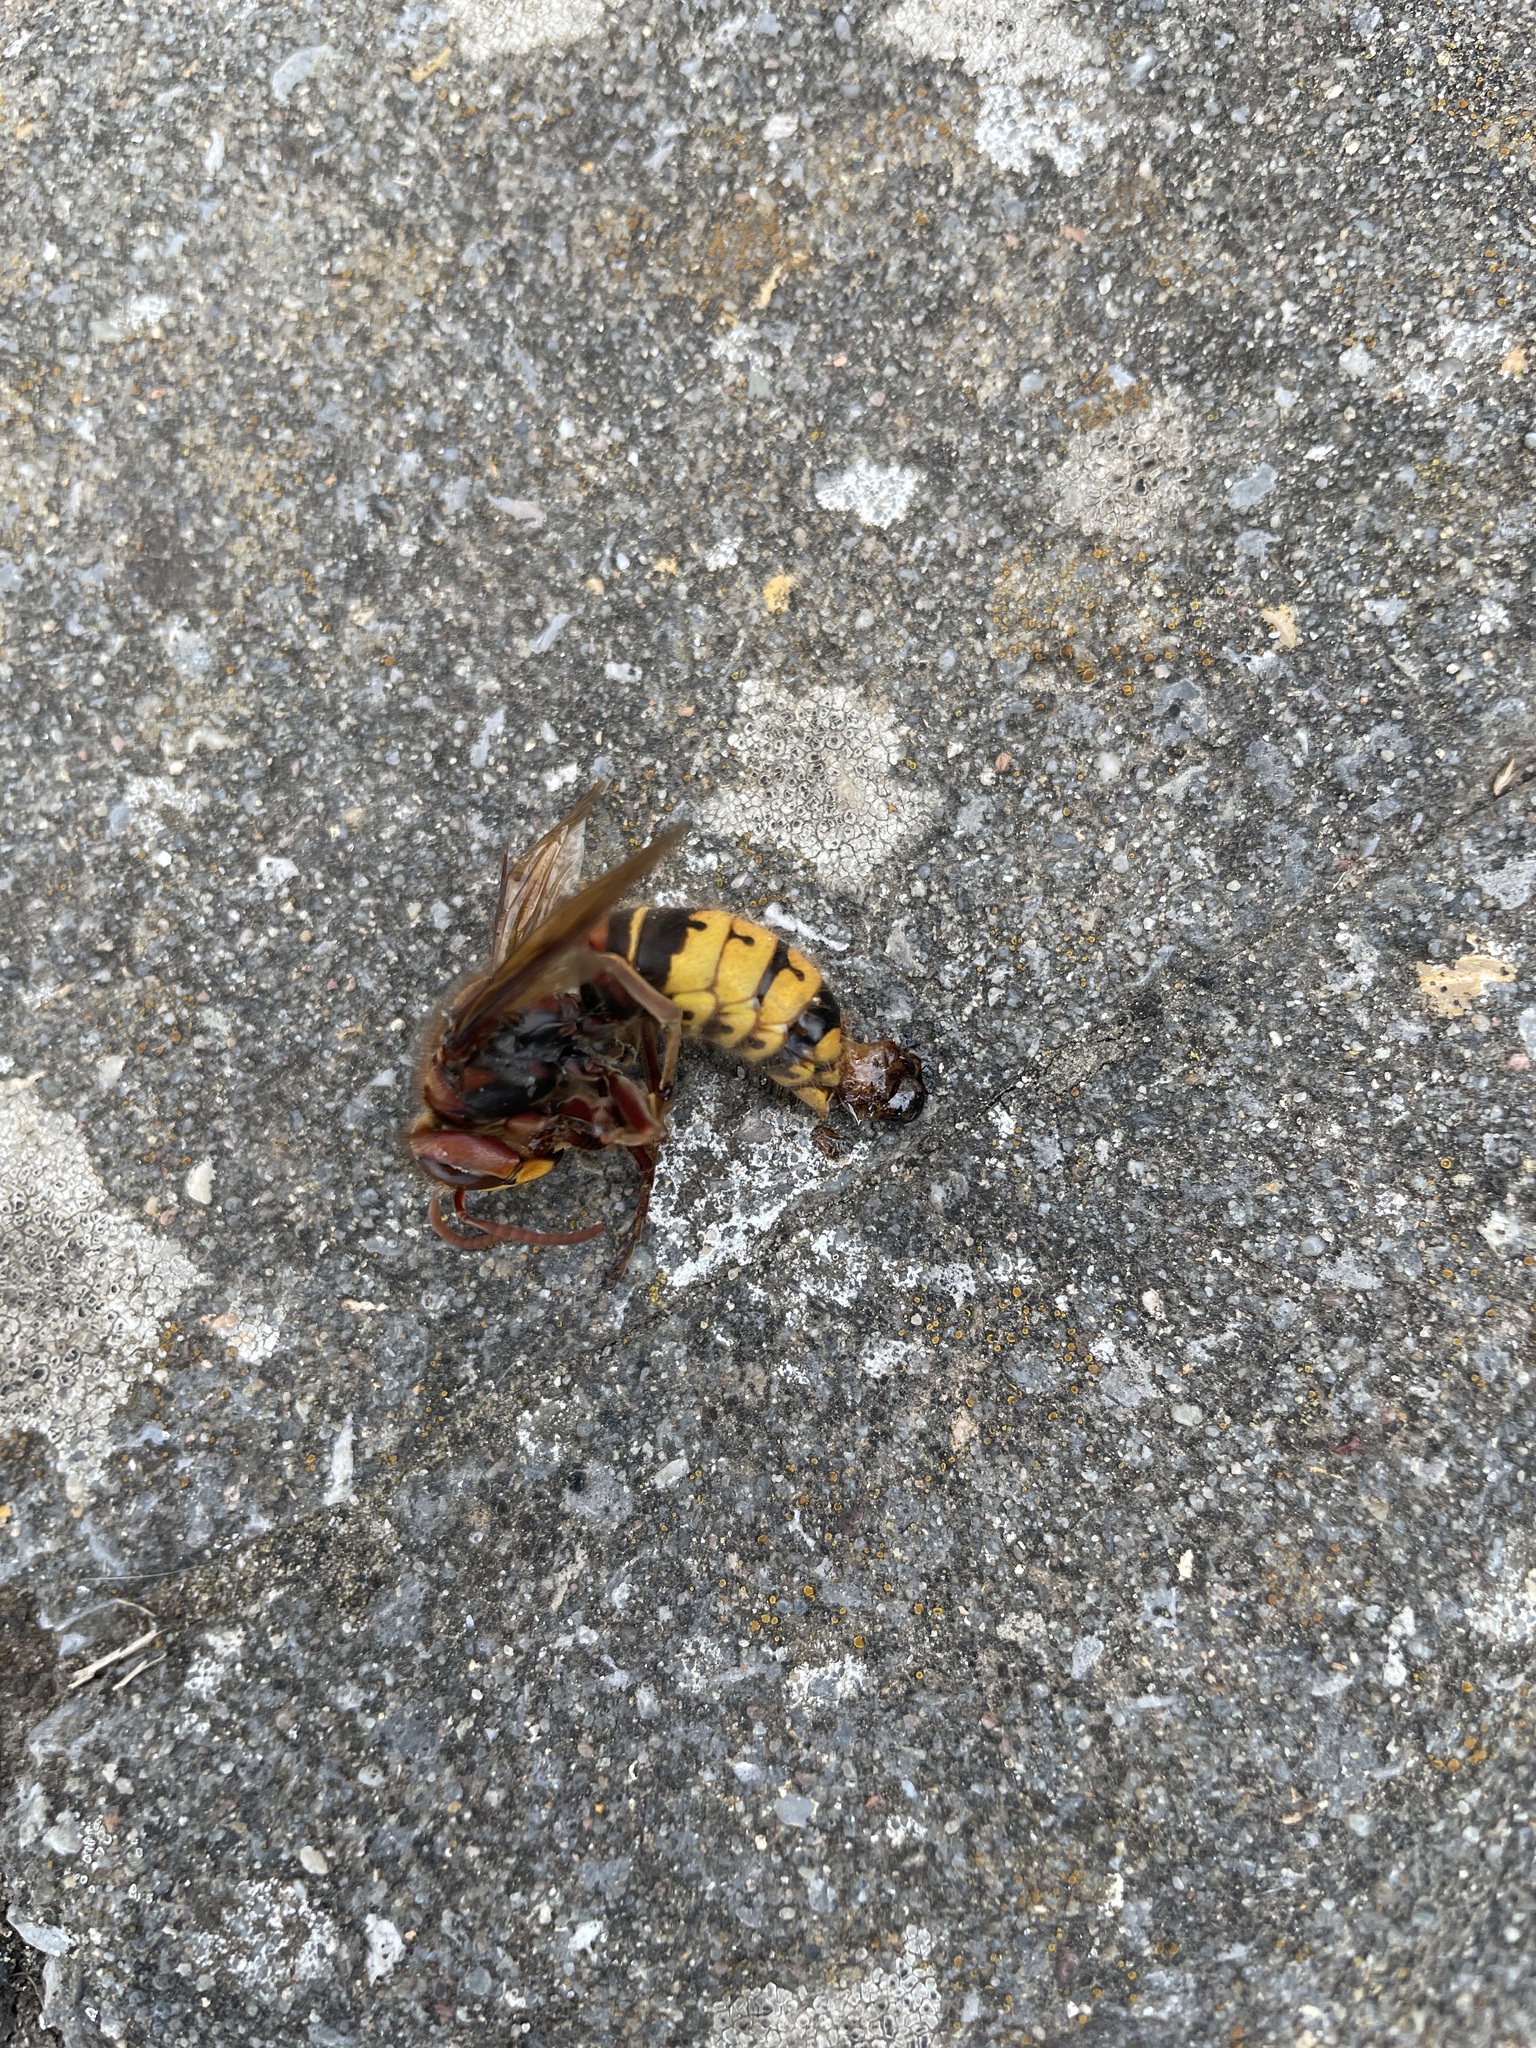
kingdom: Animalia
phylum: Arthropoda
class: Insecta
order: Hymenoptera
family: Vespidae
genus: Vespa
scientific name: Vespa crabro
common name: Hornet
